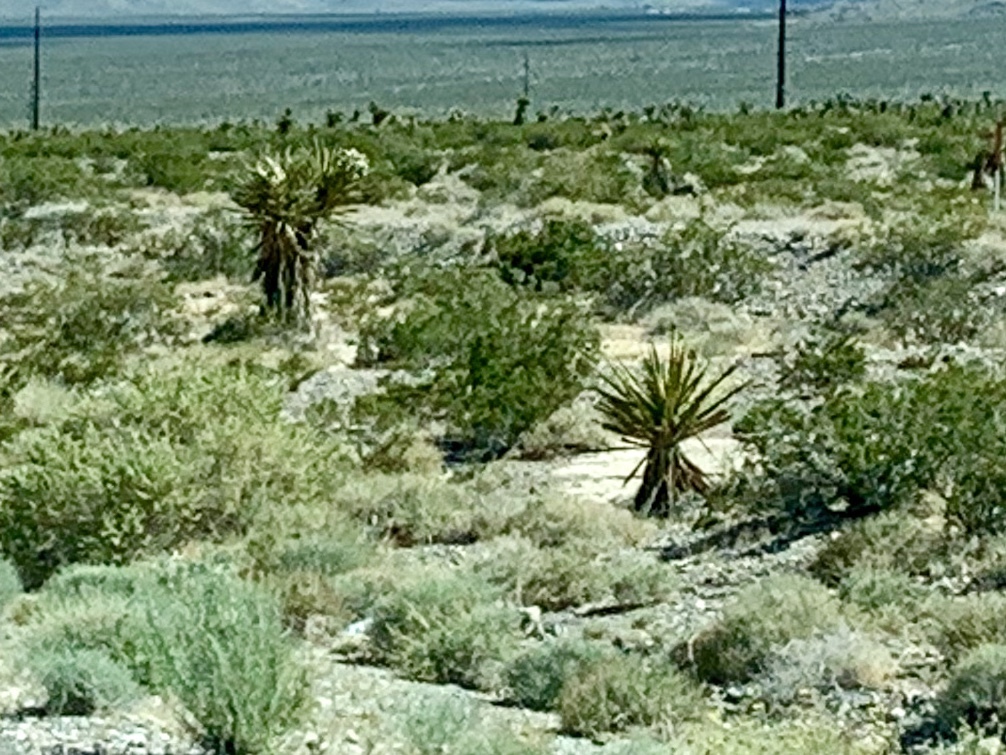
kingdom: Plantae
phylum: Tracheophyta
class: Liliopsida
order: Asparagales
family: Asparagaceae
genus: Yucca
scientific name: Yucca schidigera
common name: Mojave yucca
